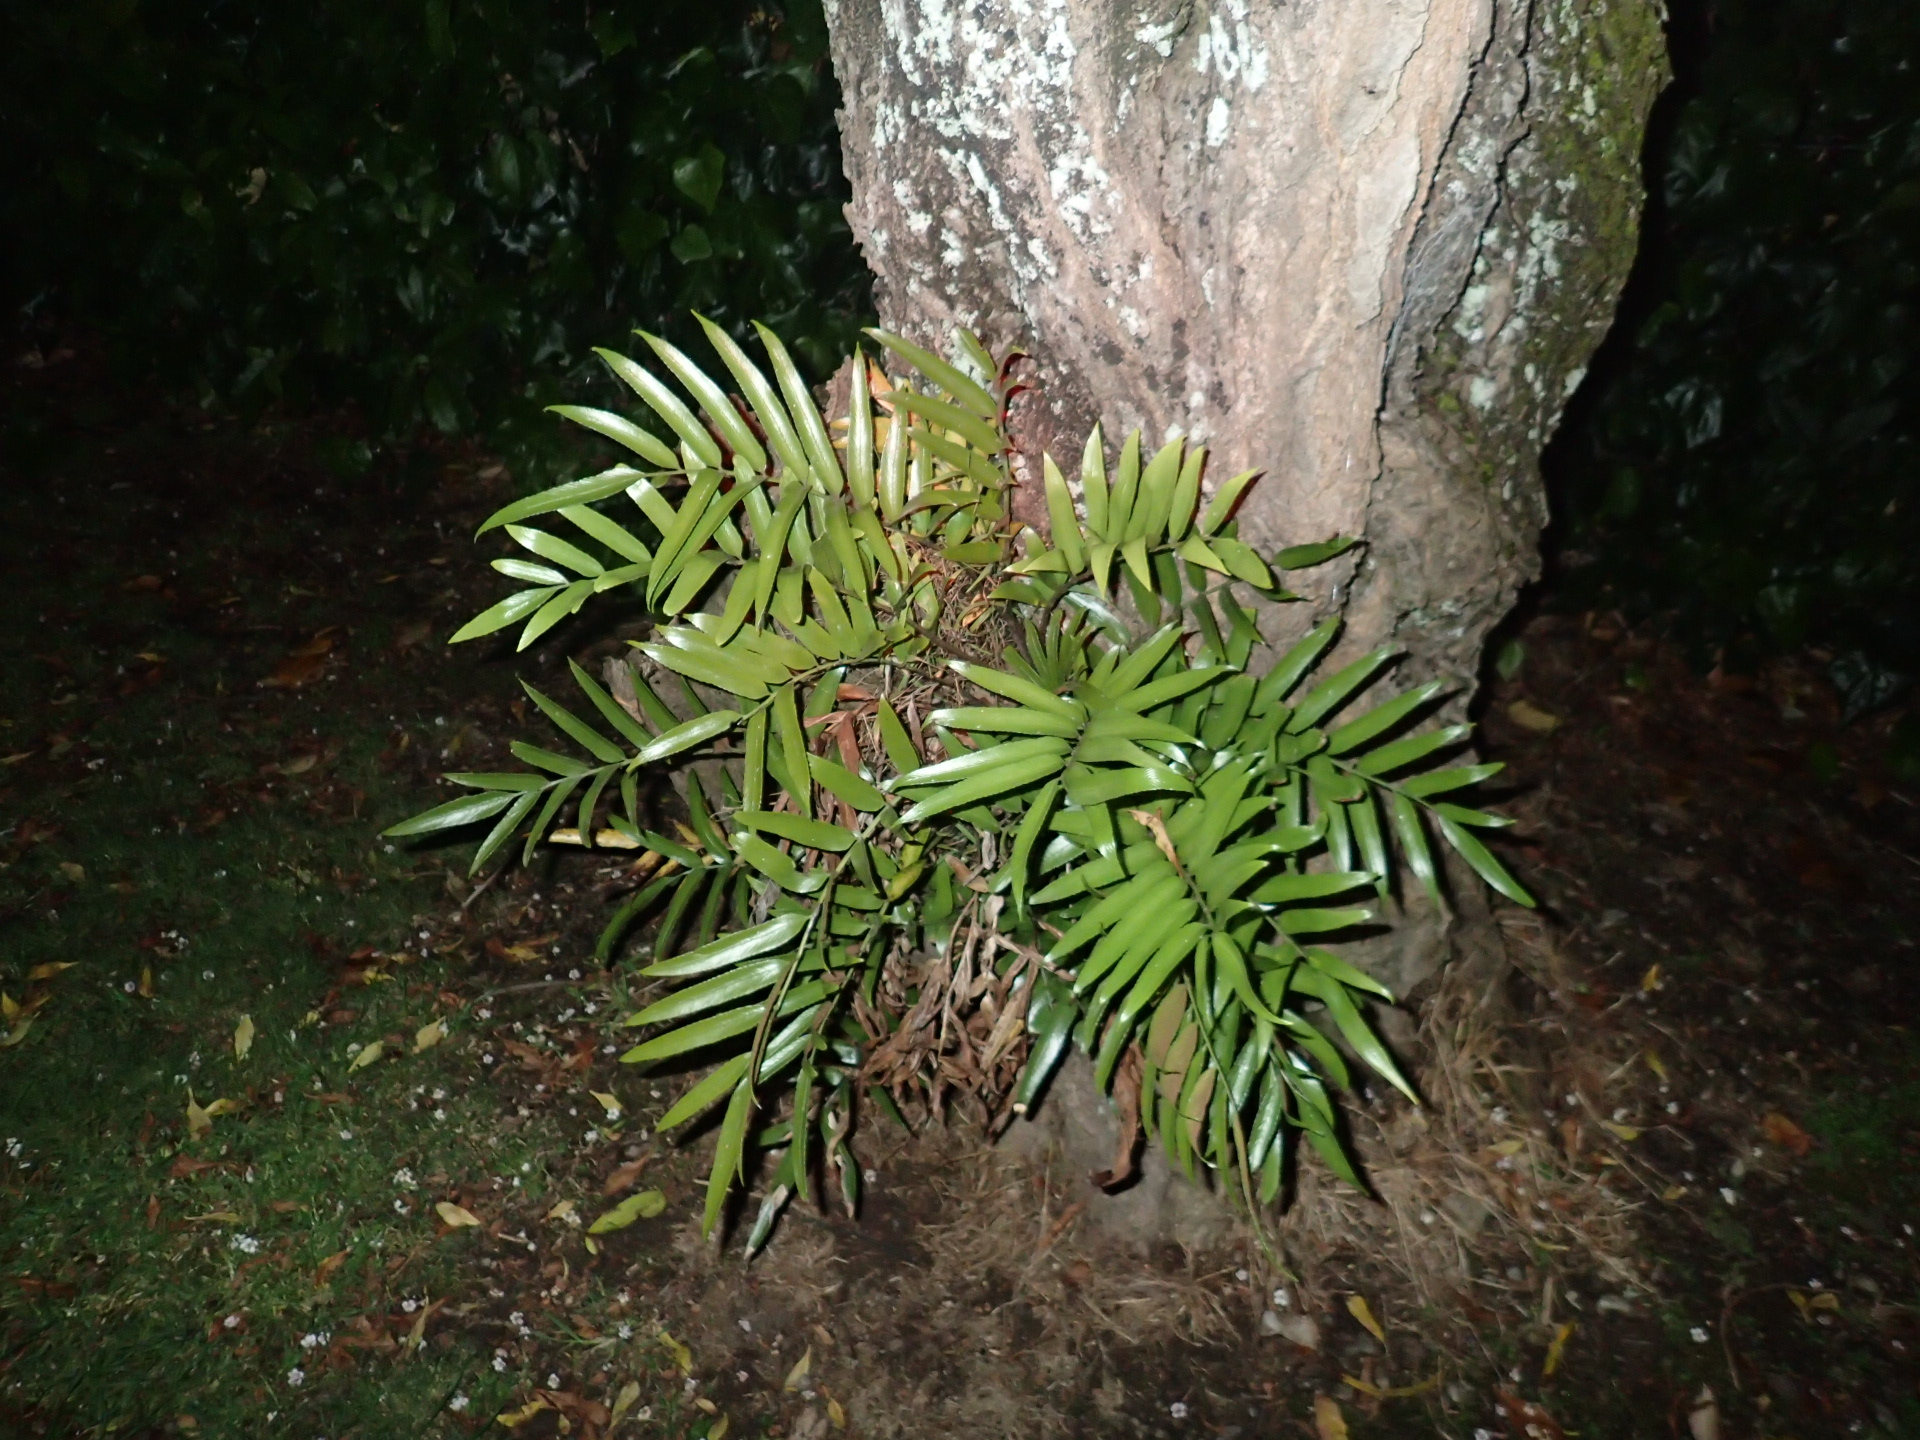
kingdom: Plantae
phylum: Tracheophyta
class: Polypodiopsida
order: Polypodiales
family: Aspleniaceae
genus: Asplenium
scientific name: Asplenium oblongifolium
